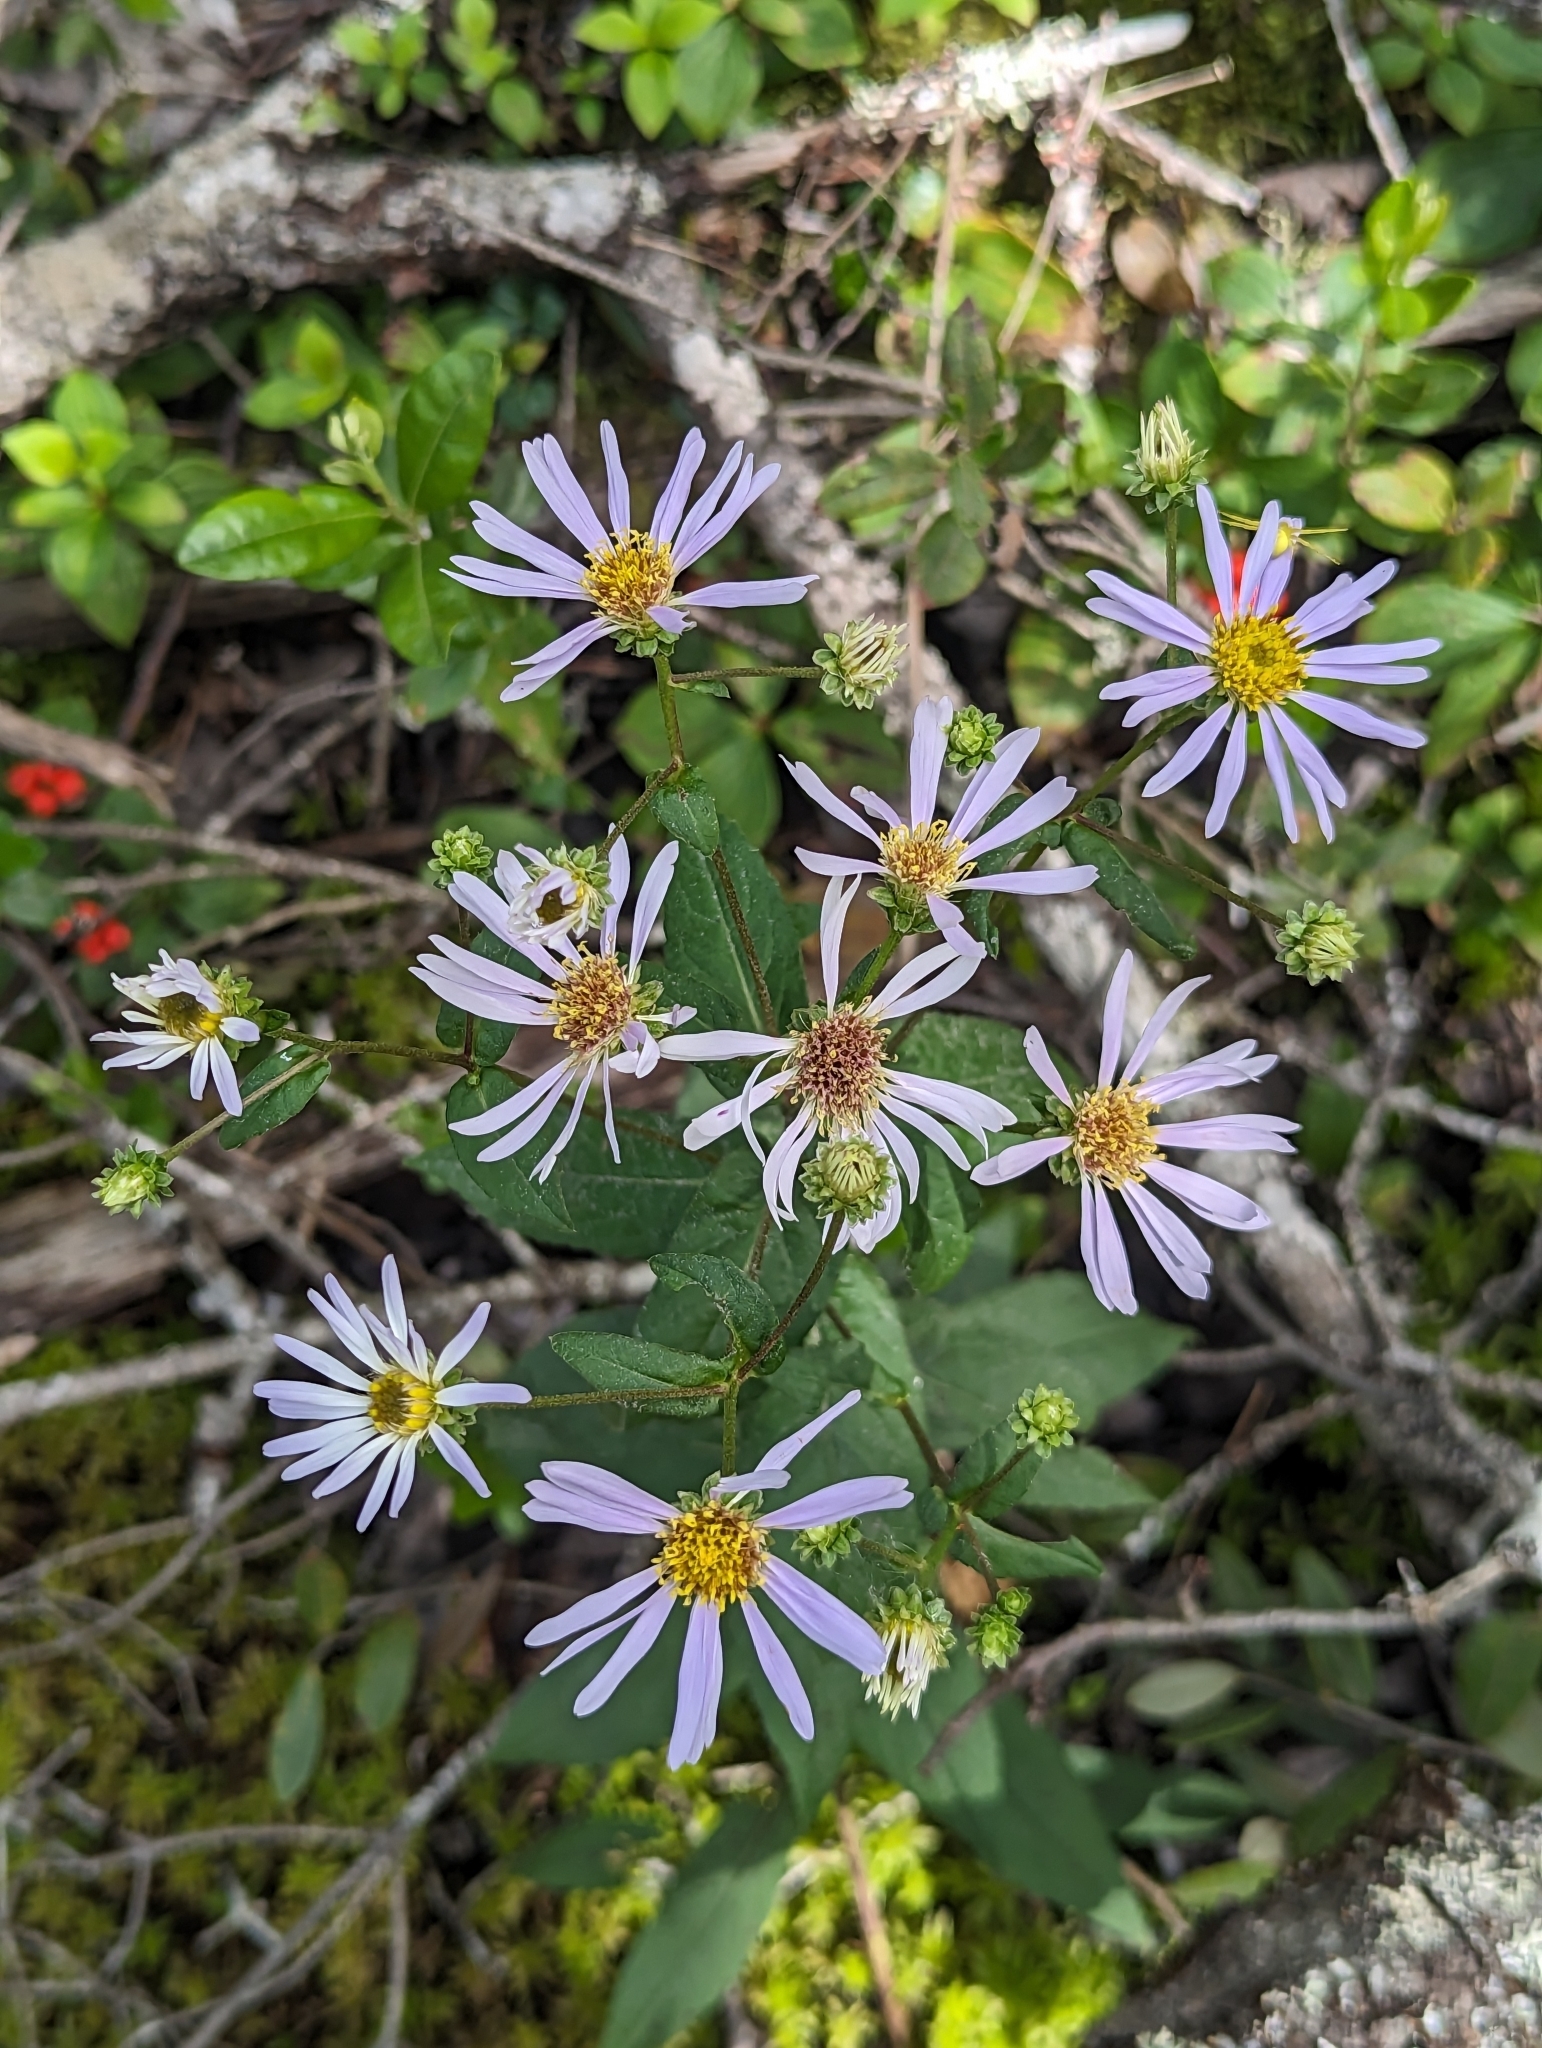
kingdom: Plantae
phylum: Tracheophyta
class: Magnoliopsida
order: Asterales
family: Asteraceae
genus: Eurybia
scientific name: Eurybia radula
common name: Low rough aster
